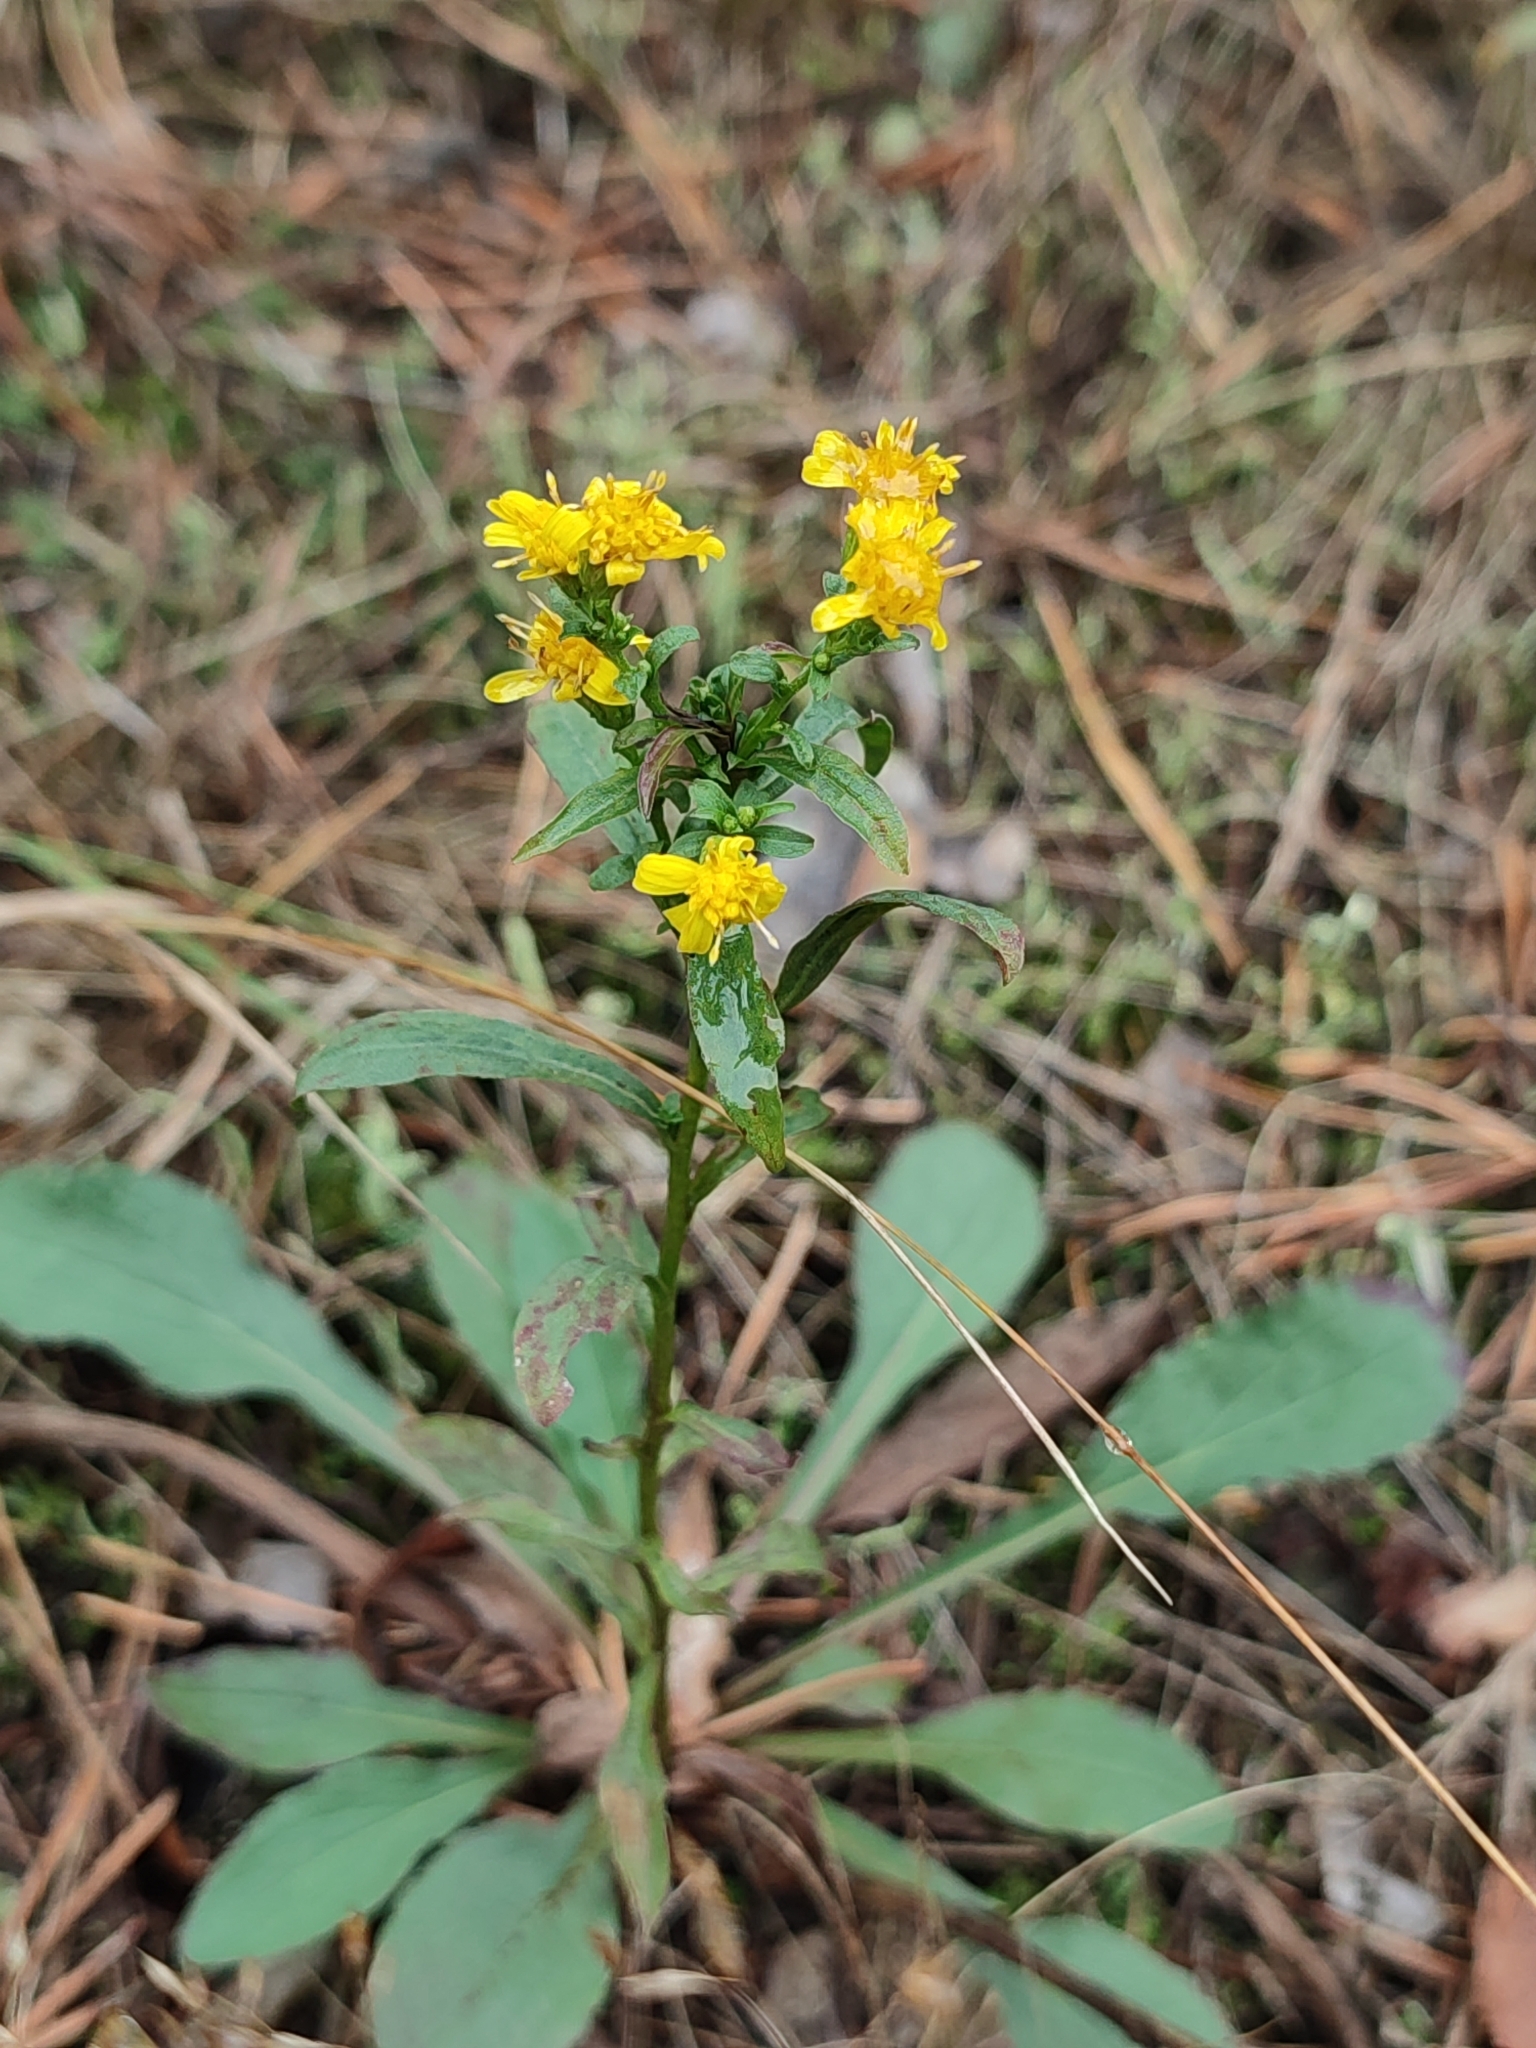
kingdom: Plantae
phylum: Tracheophyta
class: Magnoliopsida
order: Asterales
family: Asteraceae
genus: Solidago
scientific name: Solidago virgaurea
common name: Goldenrod
